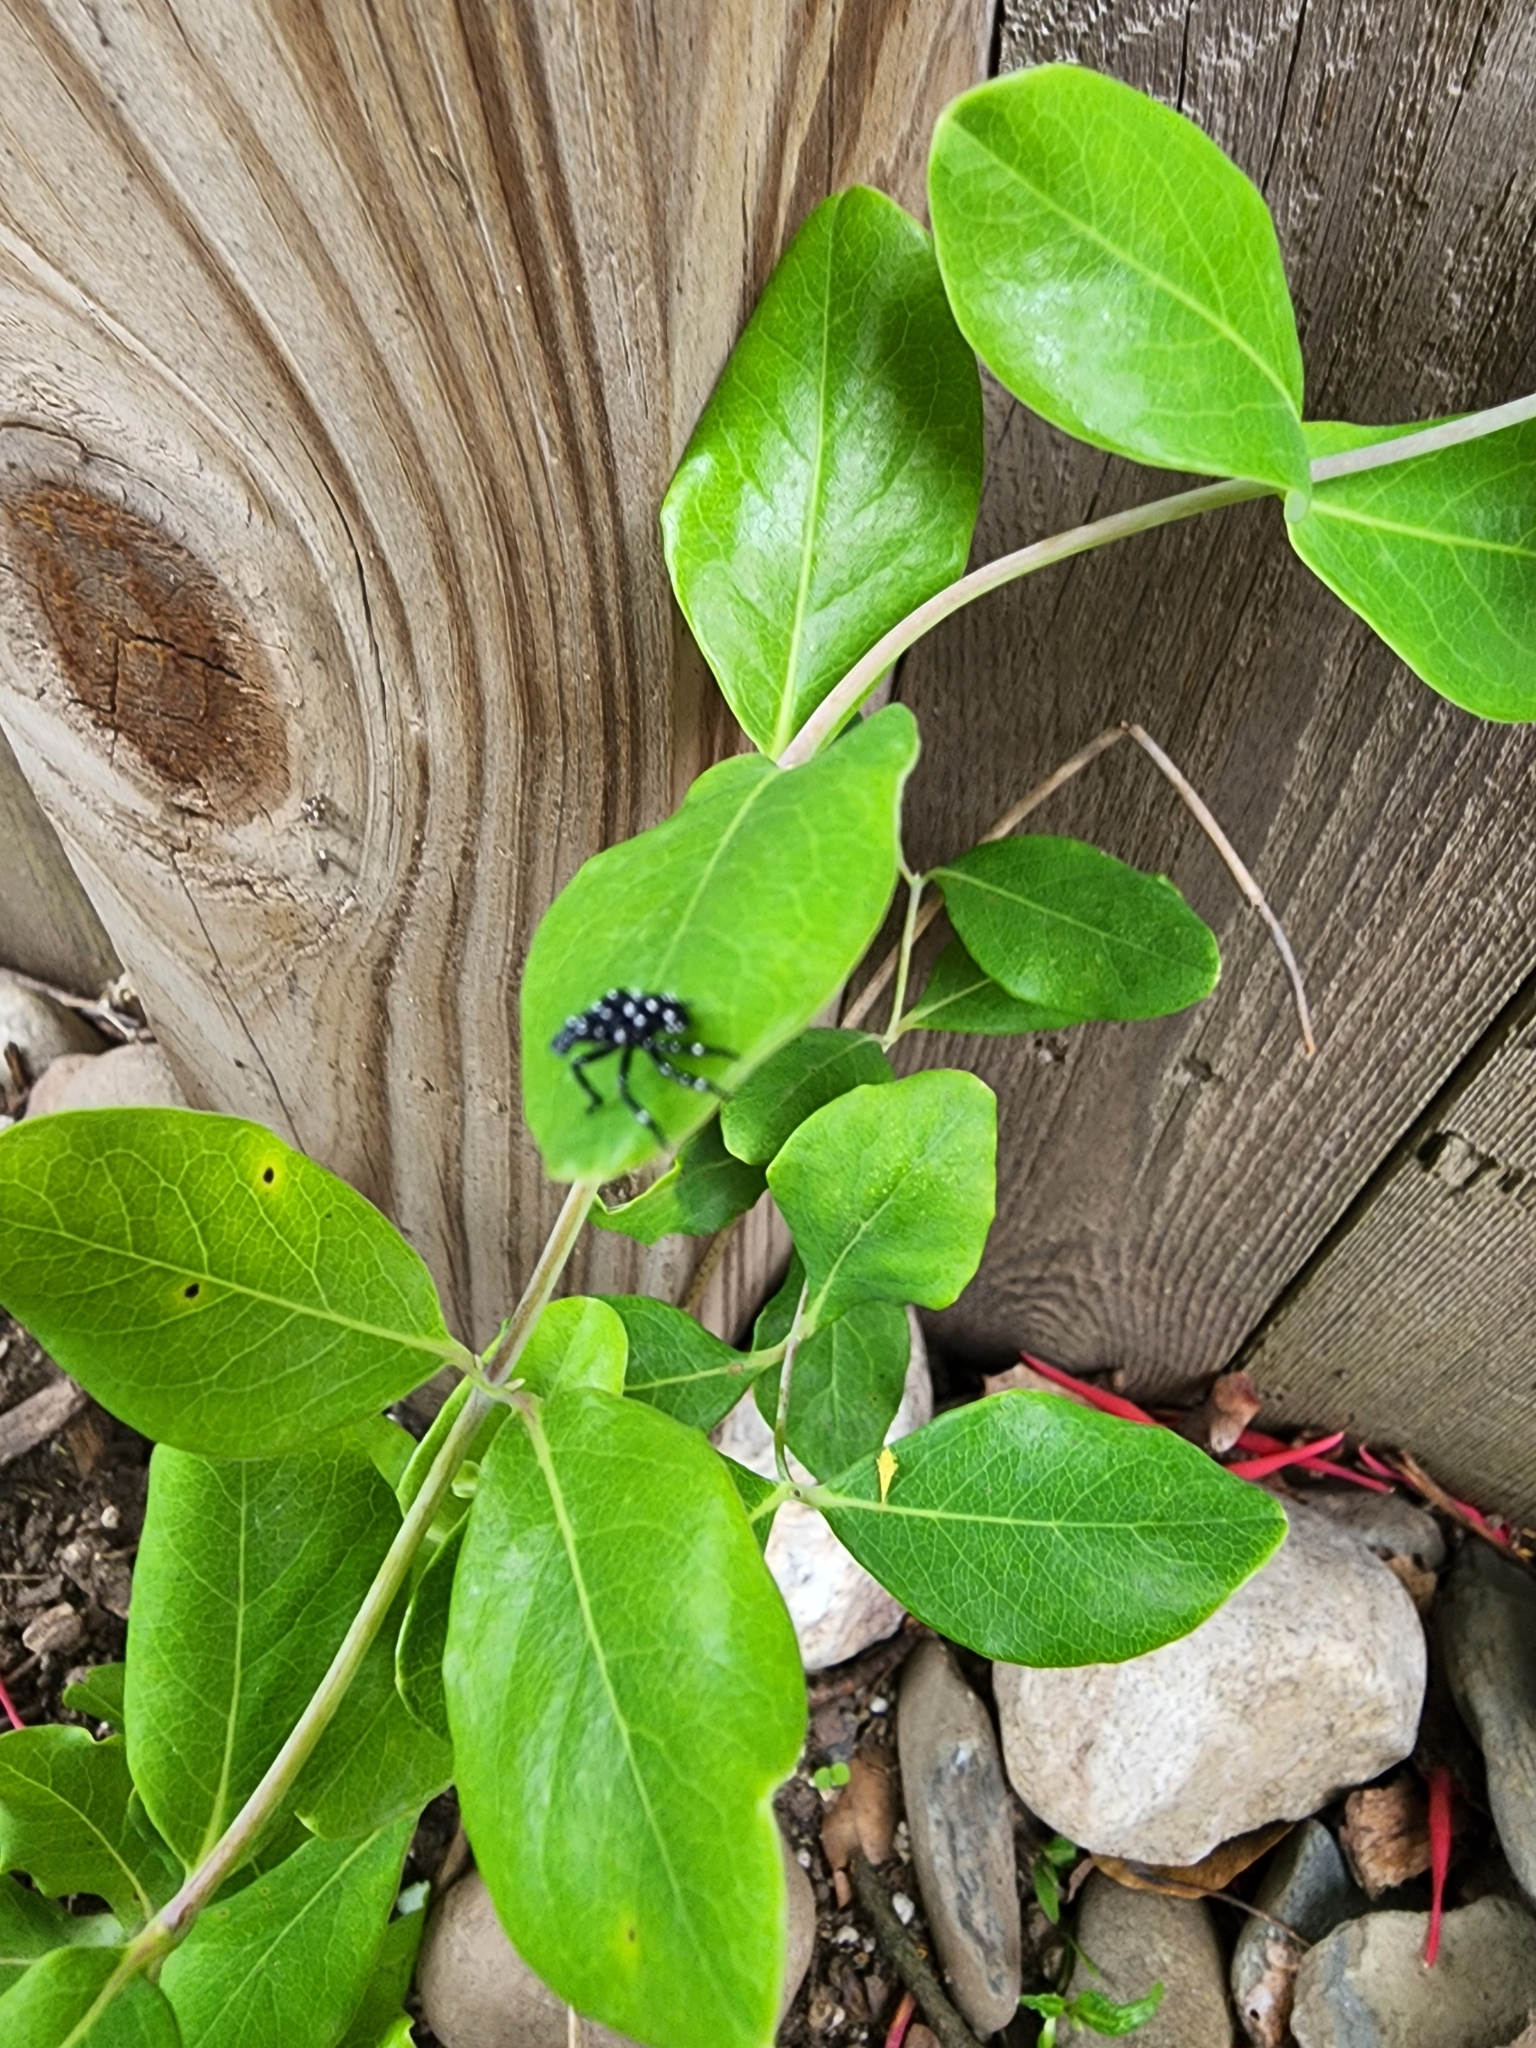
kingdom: Animalia
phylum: Arthropoda
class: Insecta
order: Hemiptera
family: Fulgoridae
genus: Lycorma
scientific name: Lycorma delicatula
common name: Spotted lanternfly
